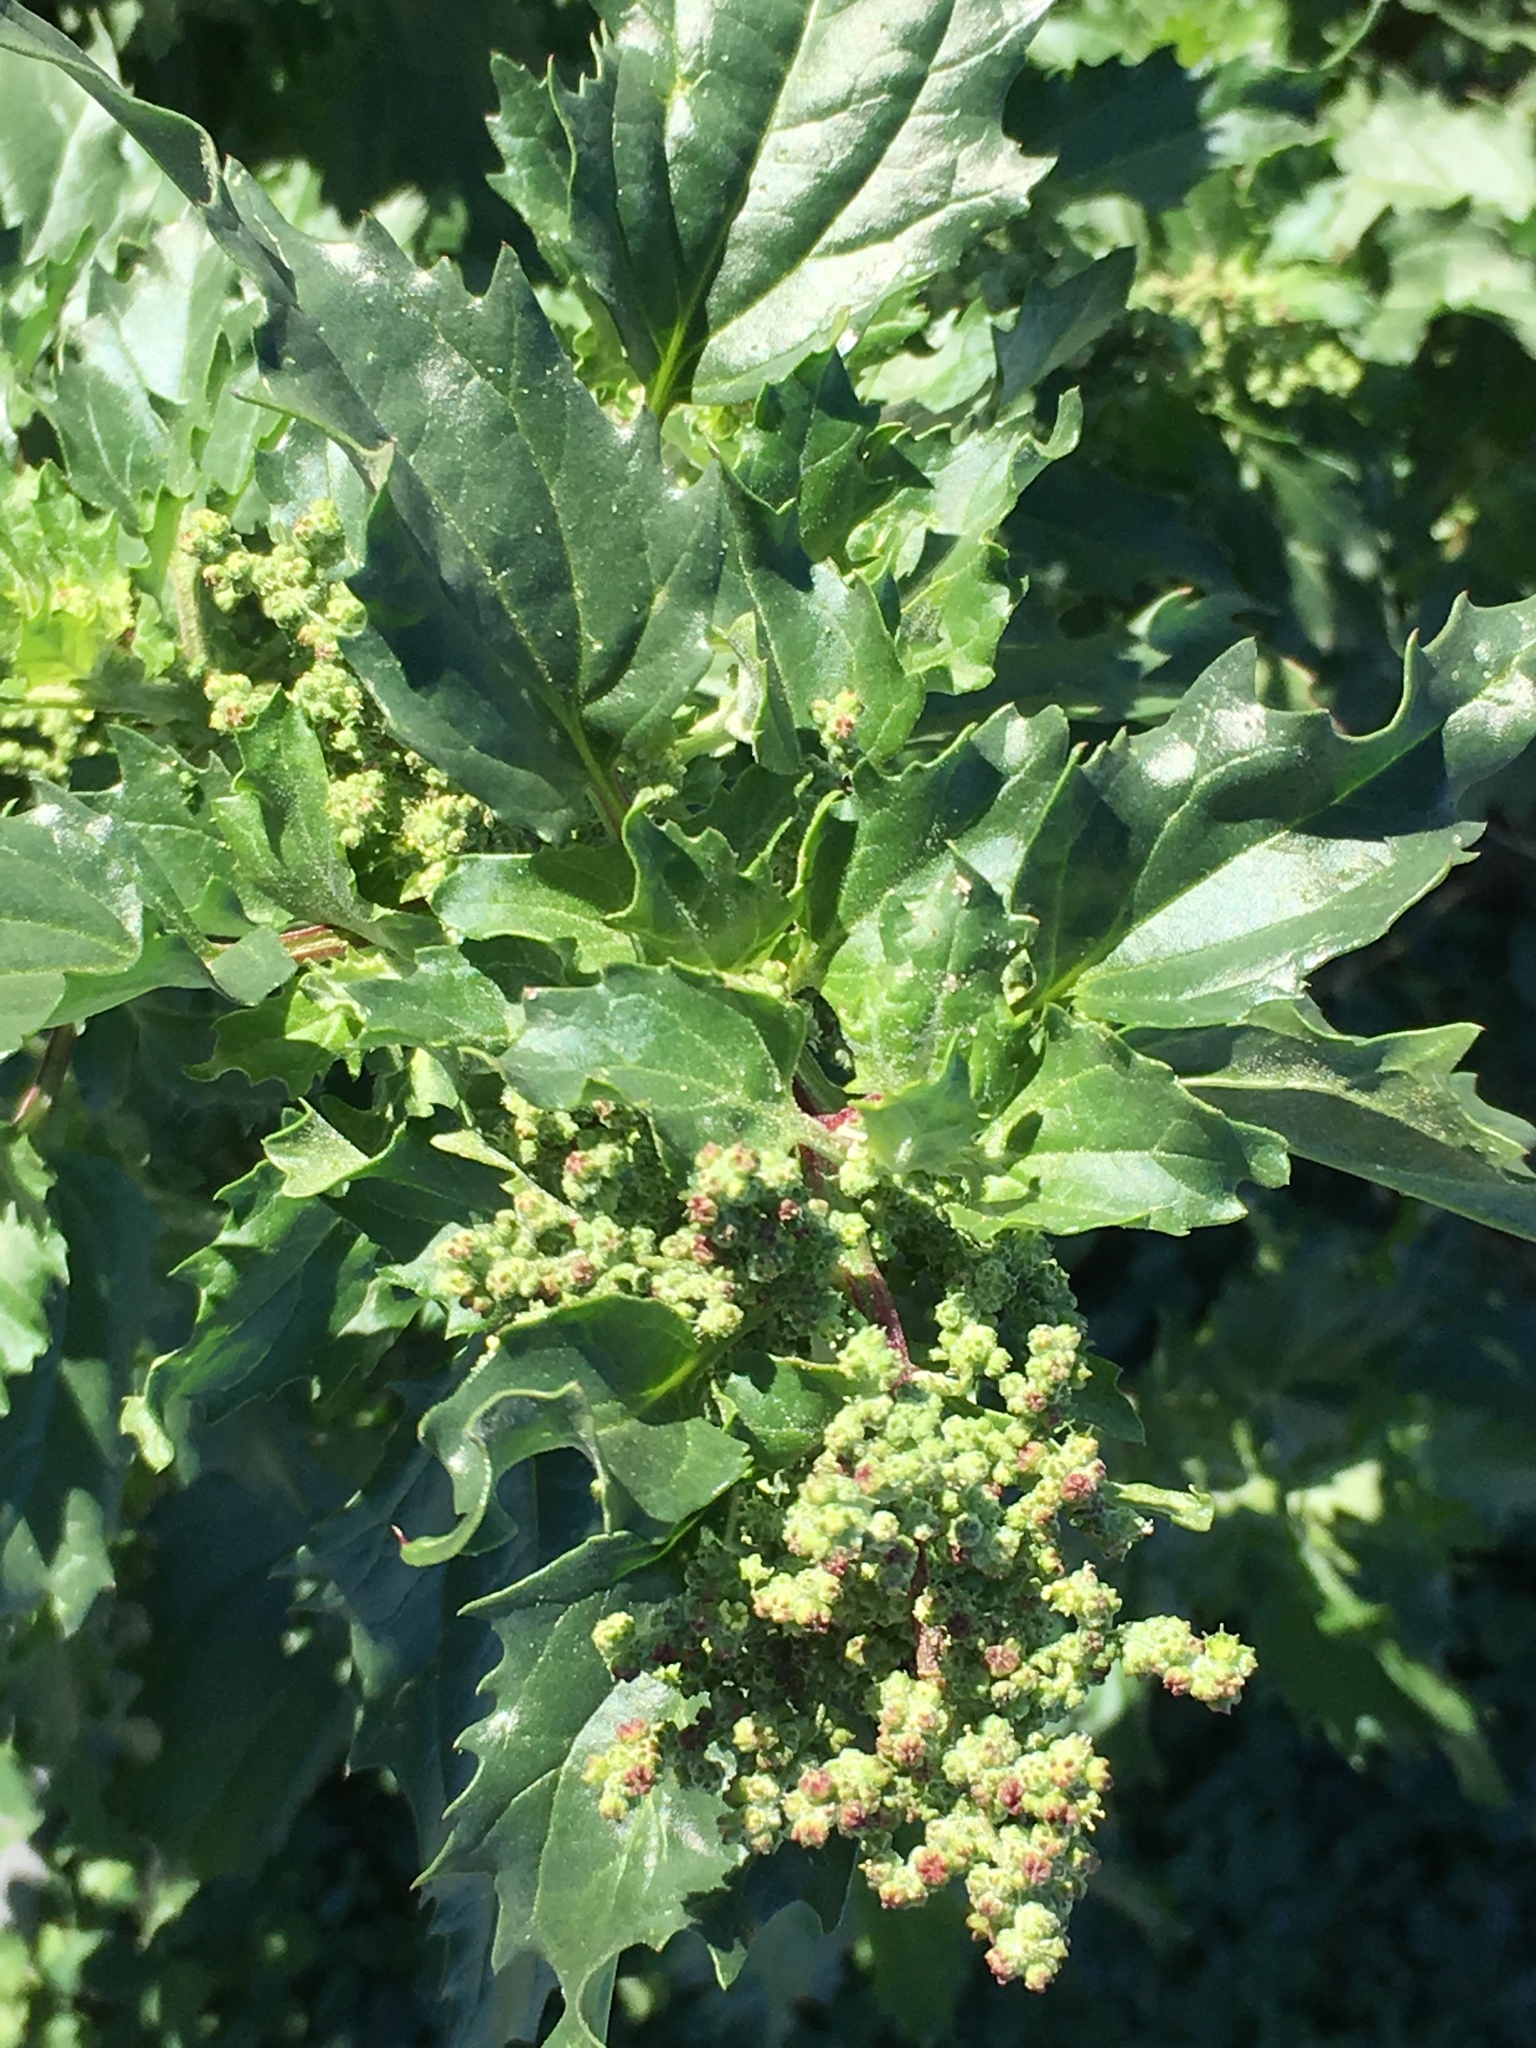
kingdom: Plantae
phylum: Tracheophyta
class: Magnoliopsida
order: Caryophyllales
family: Amaranthaceae
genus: Chenopodiastrum
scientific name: Chenopodiastrum murale
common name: Sowbane
